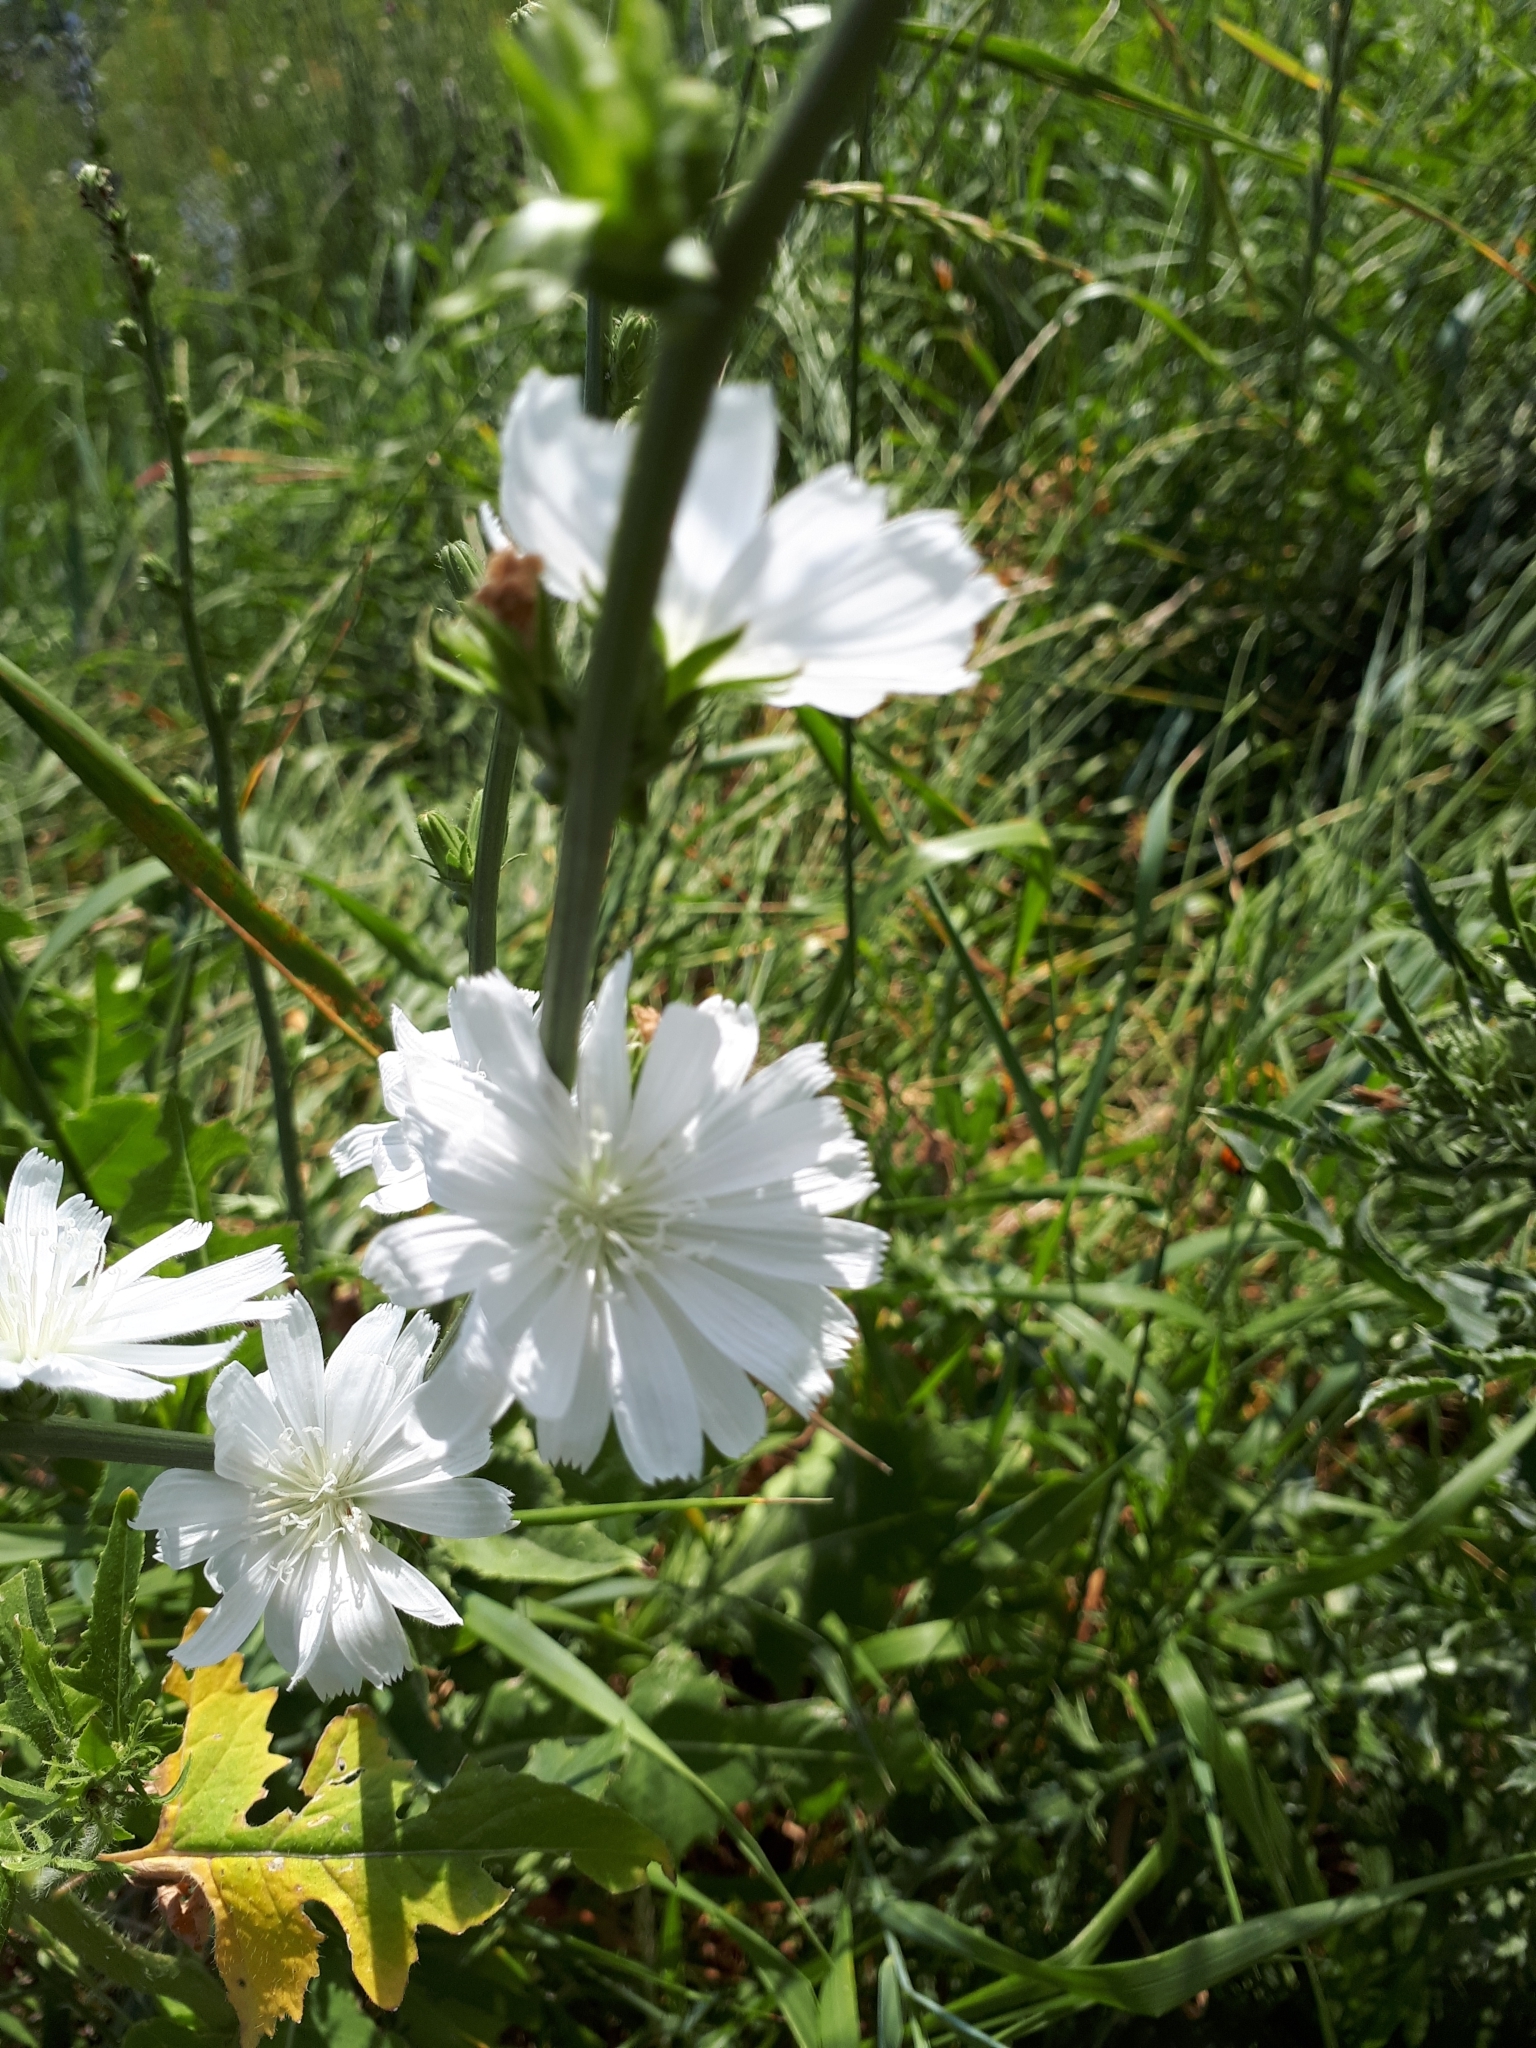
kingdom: Plantae
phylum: Tracheophyta
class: Magnoliopsida
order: Asterales
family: Asteraceae
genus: Cichorium
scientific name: Cichorium intybus
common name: Chicory
